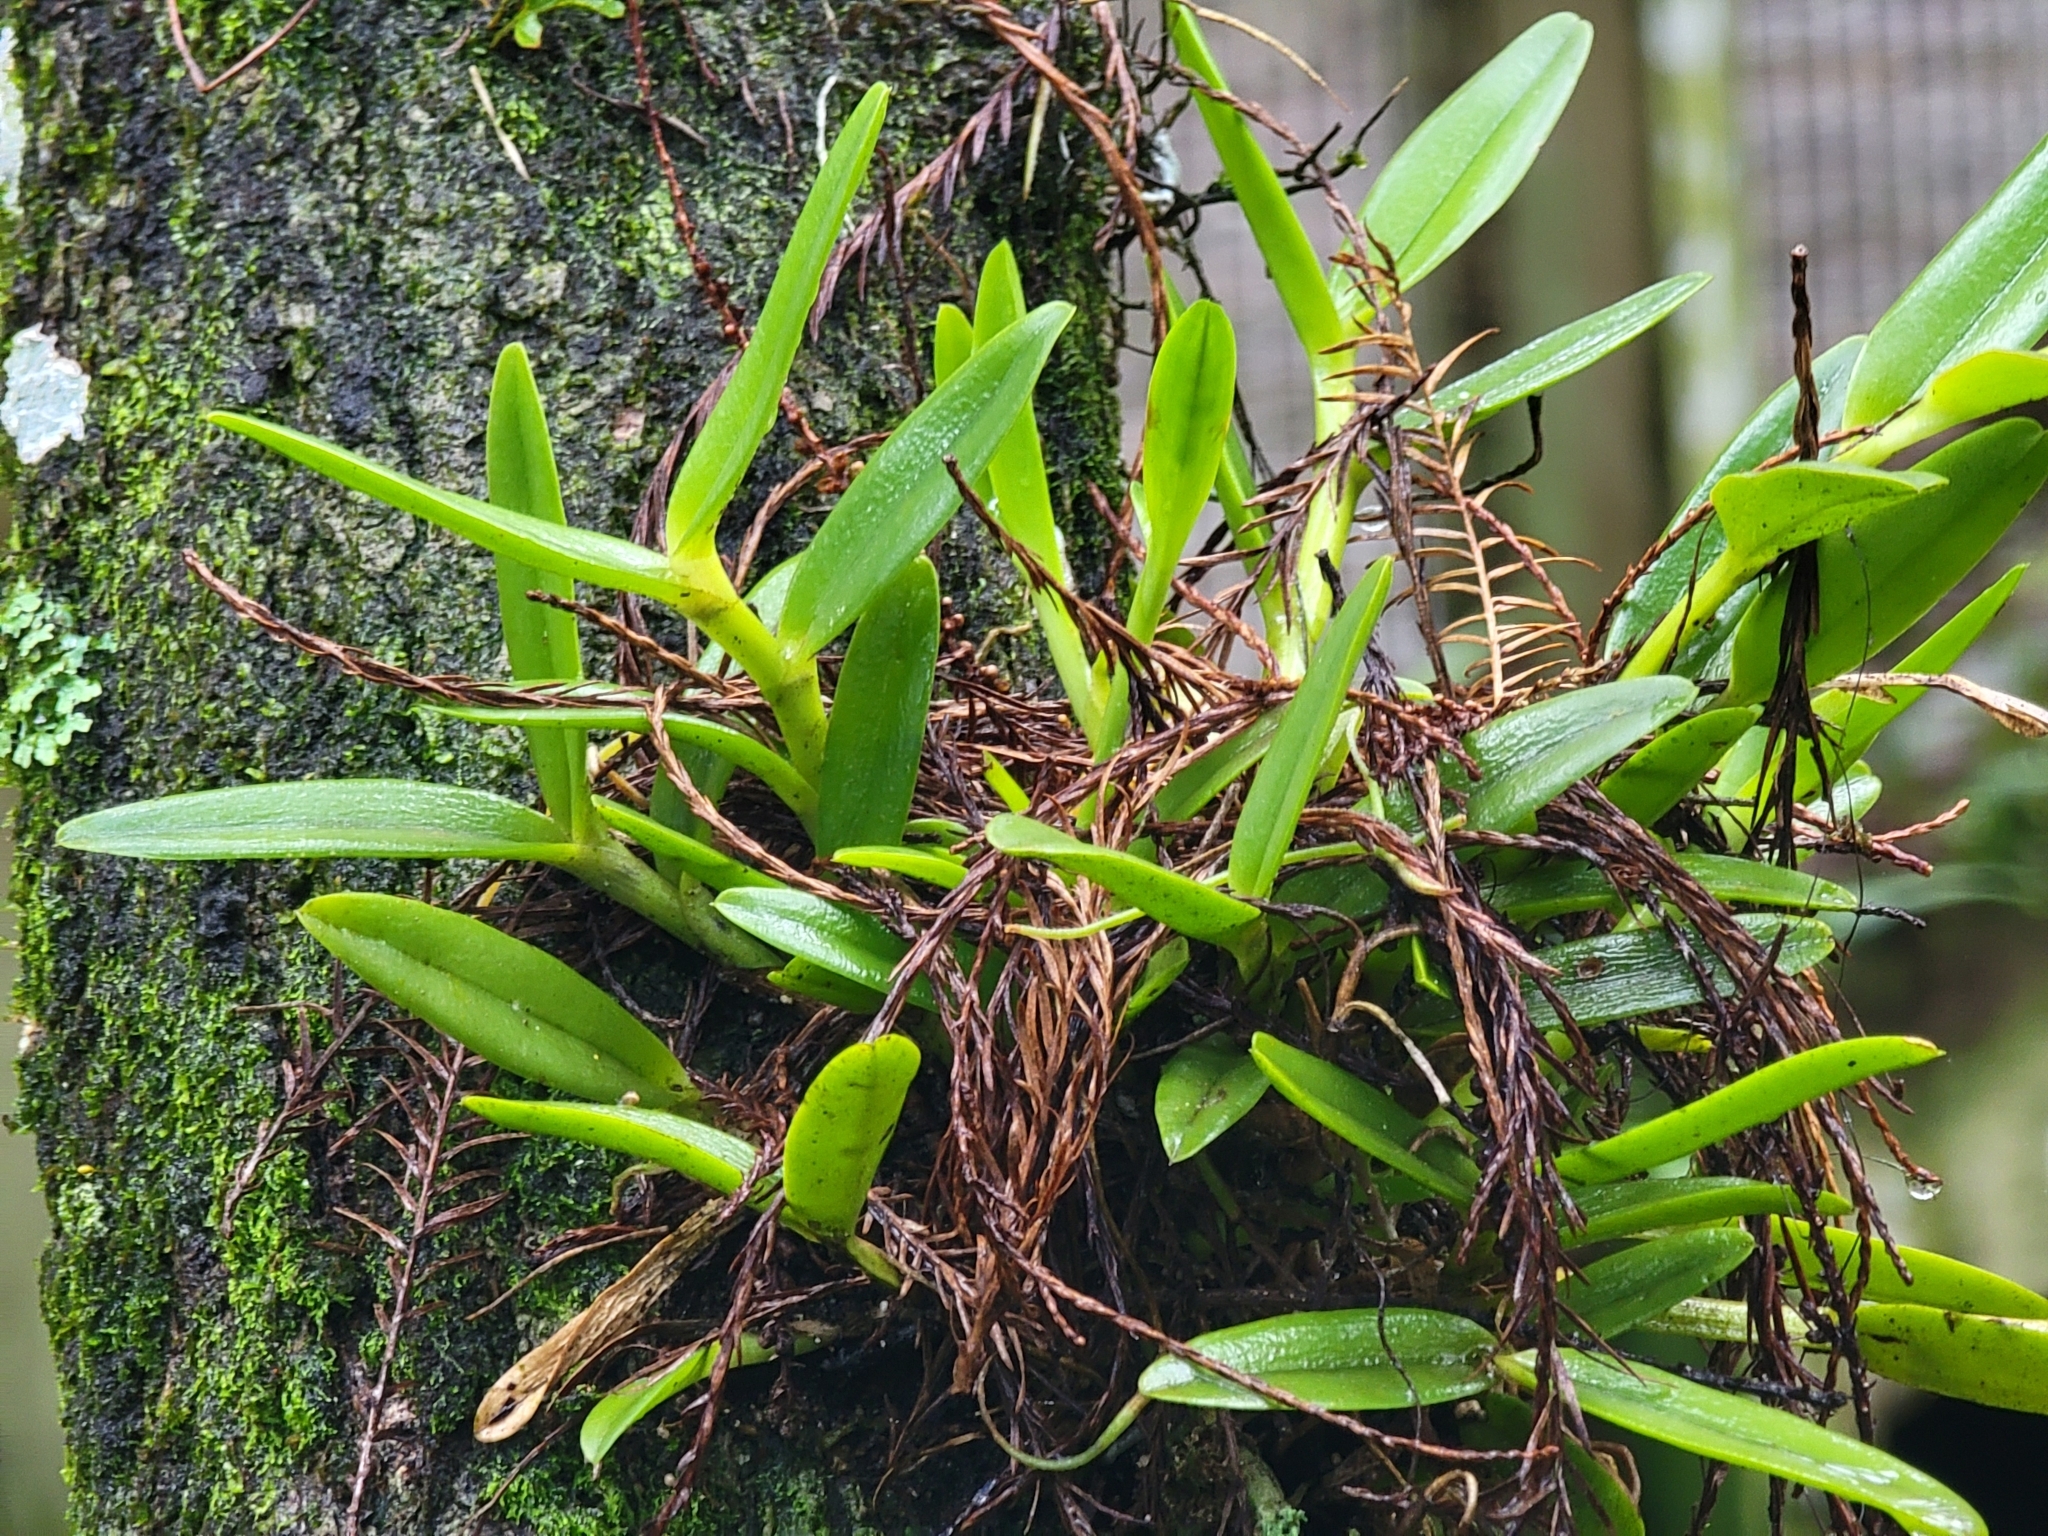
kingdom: Plantae
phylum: Tracheophyta
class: Liliopsida
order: Asparagales
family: Orchidaceae
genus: Epidendrum
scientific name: Epidendrum rigidum
